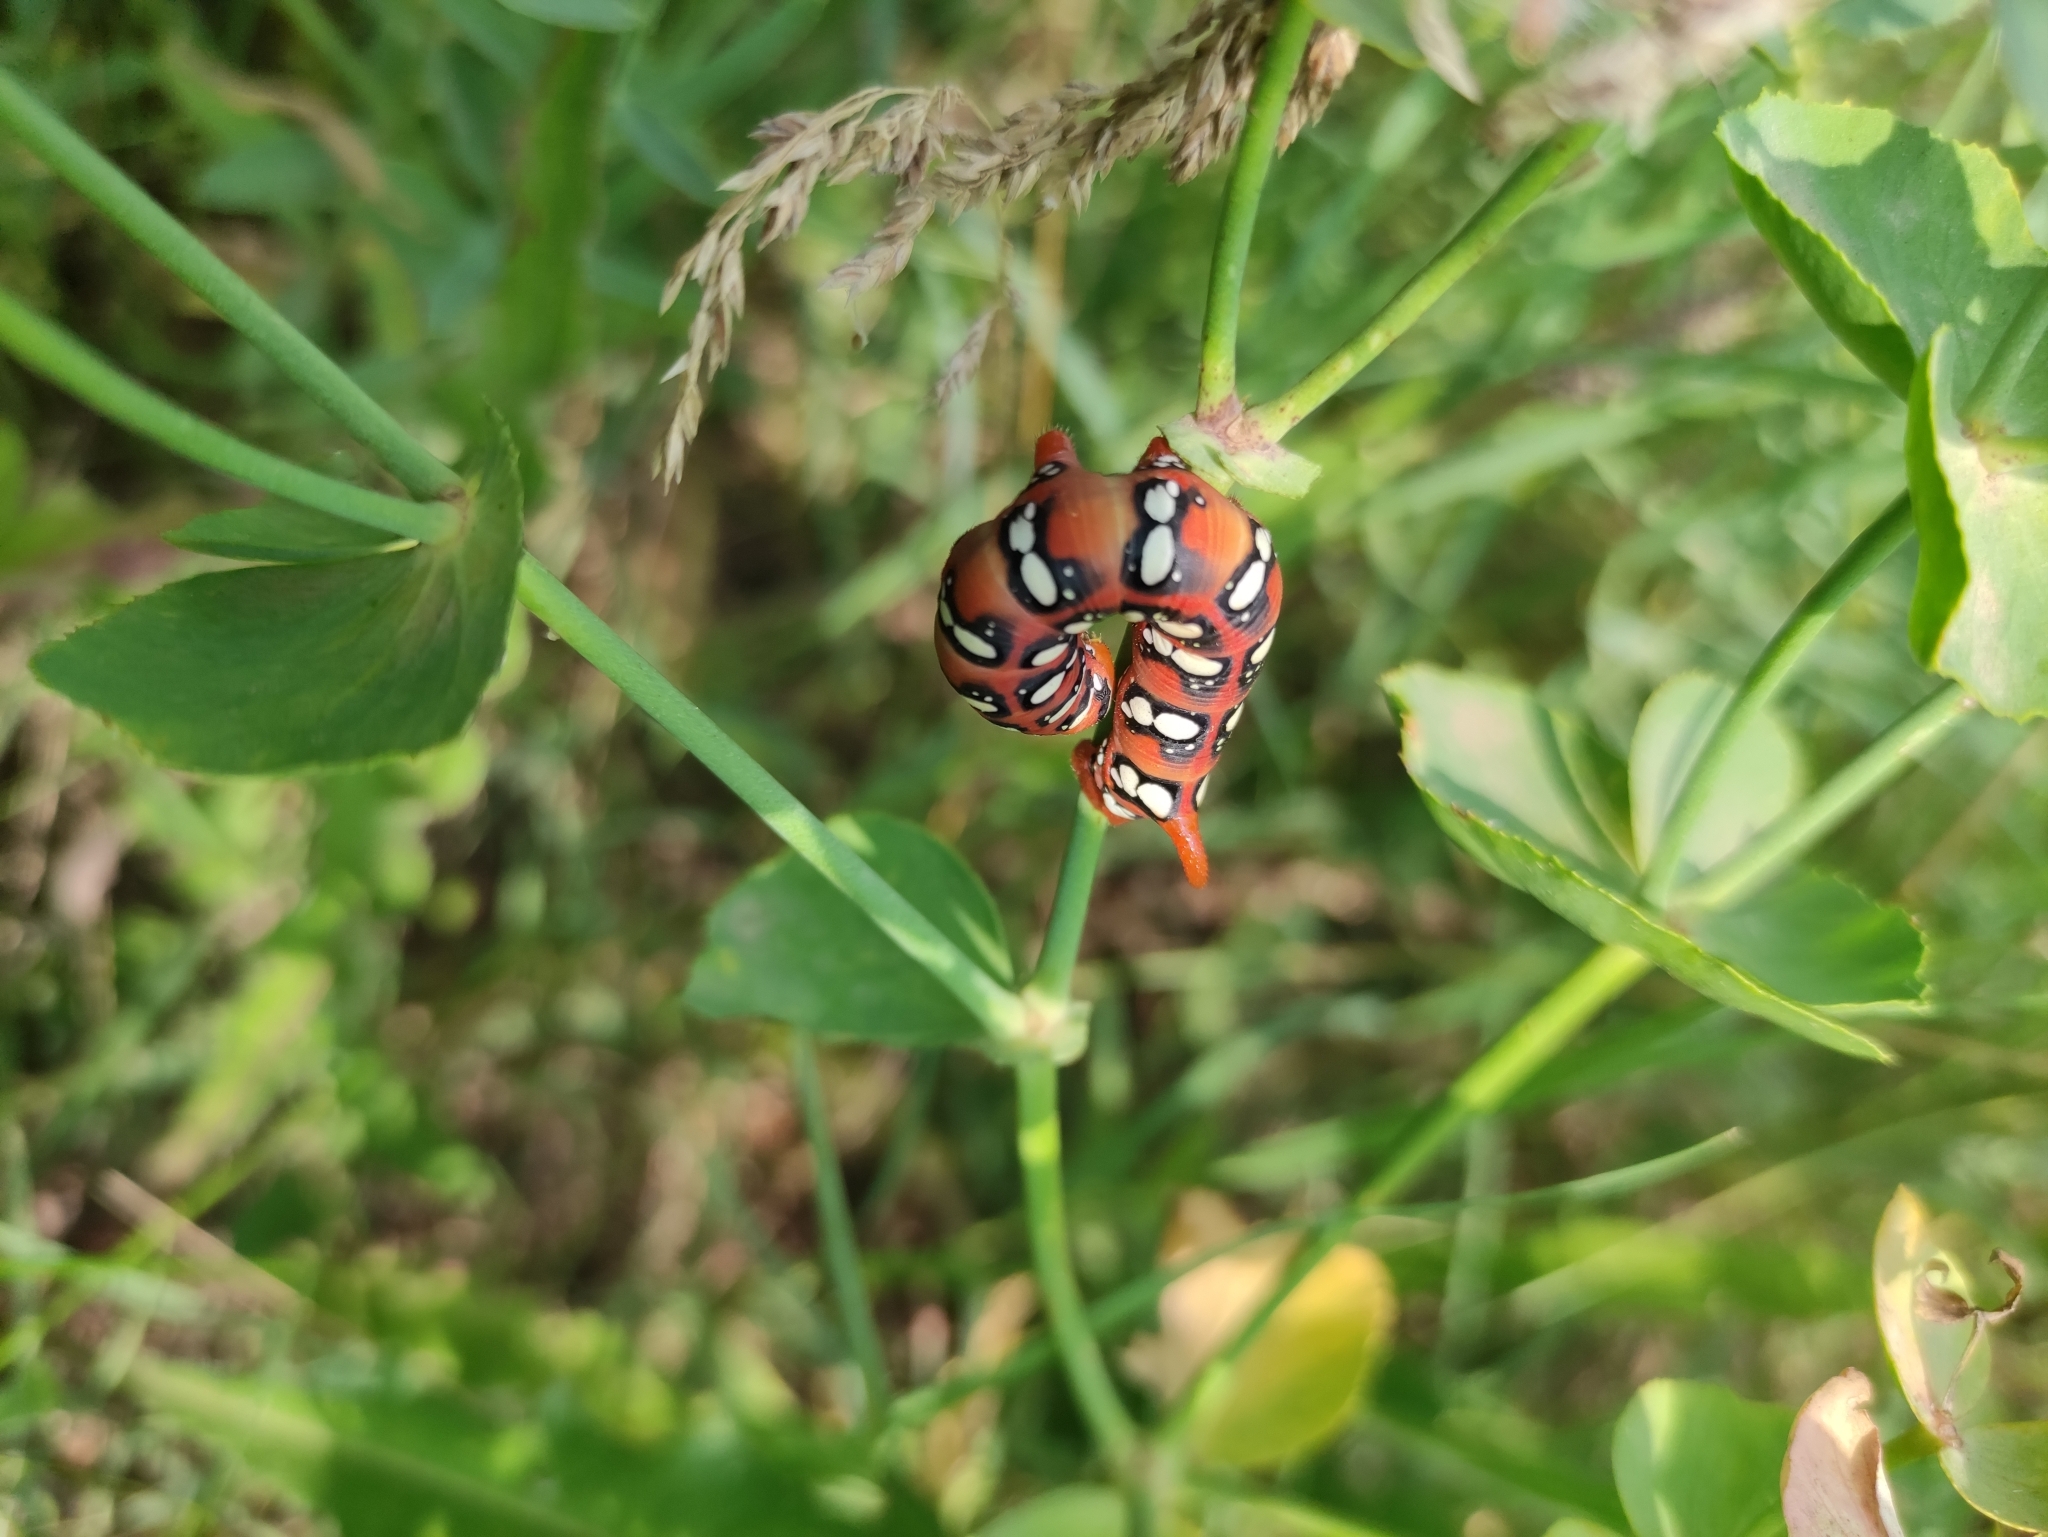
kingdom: Animalia
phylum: Arthropoda
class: Insecta
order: Lepidoptera
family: Sphingidae
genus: Hyles
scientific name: Hyles euphorbiae
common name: Spurge hawk-moth
